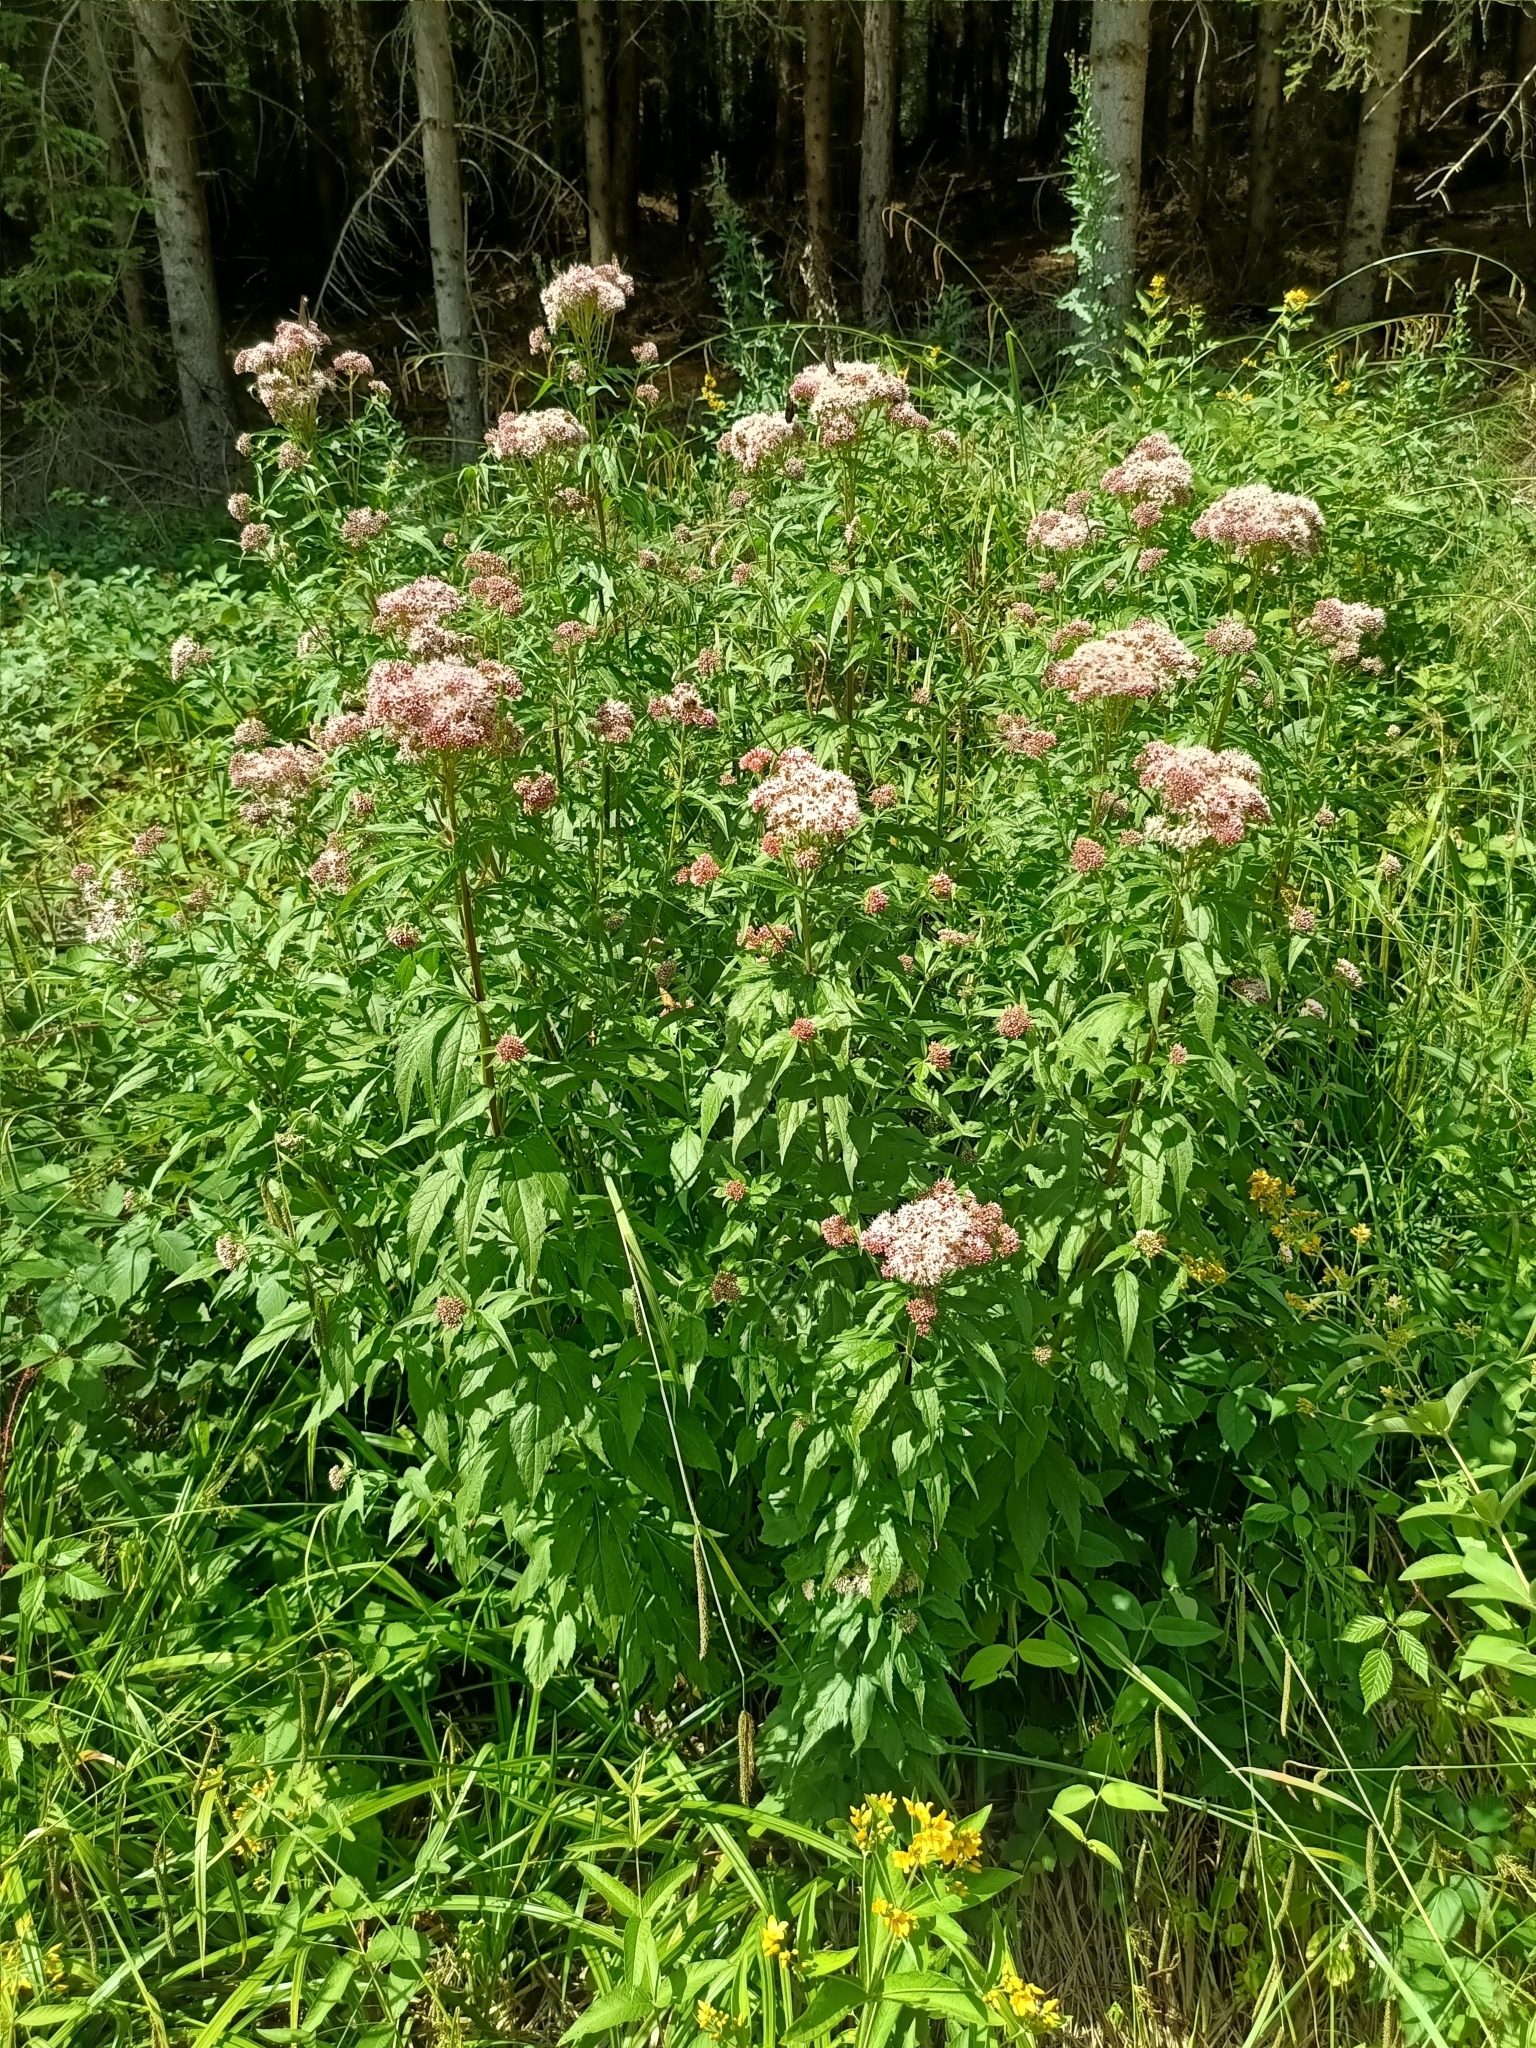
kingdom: Plantae
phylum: Tracheophyta
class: Magnoliopsida
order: Asterales
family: Asteraceae
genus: Eupatorium
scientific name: Eupatorium cannabinum
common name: Hemp-agrimony
